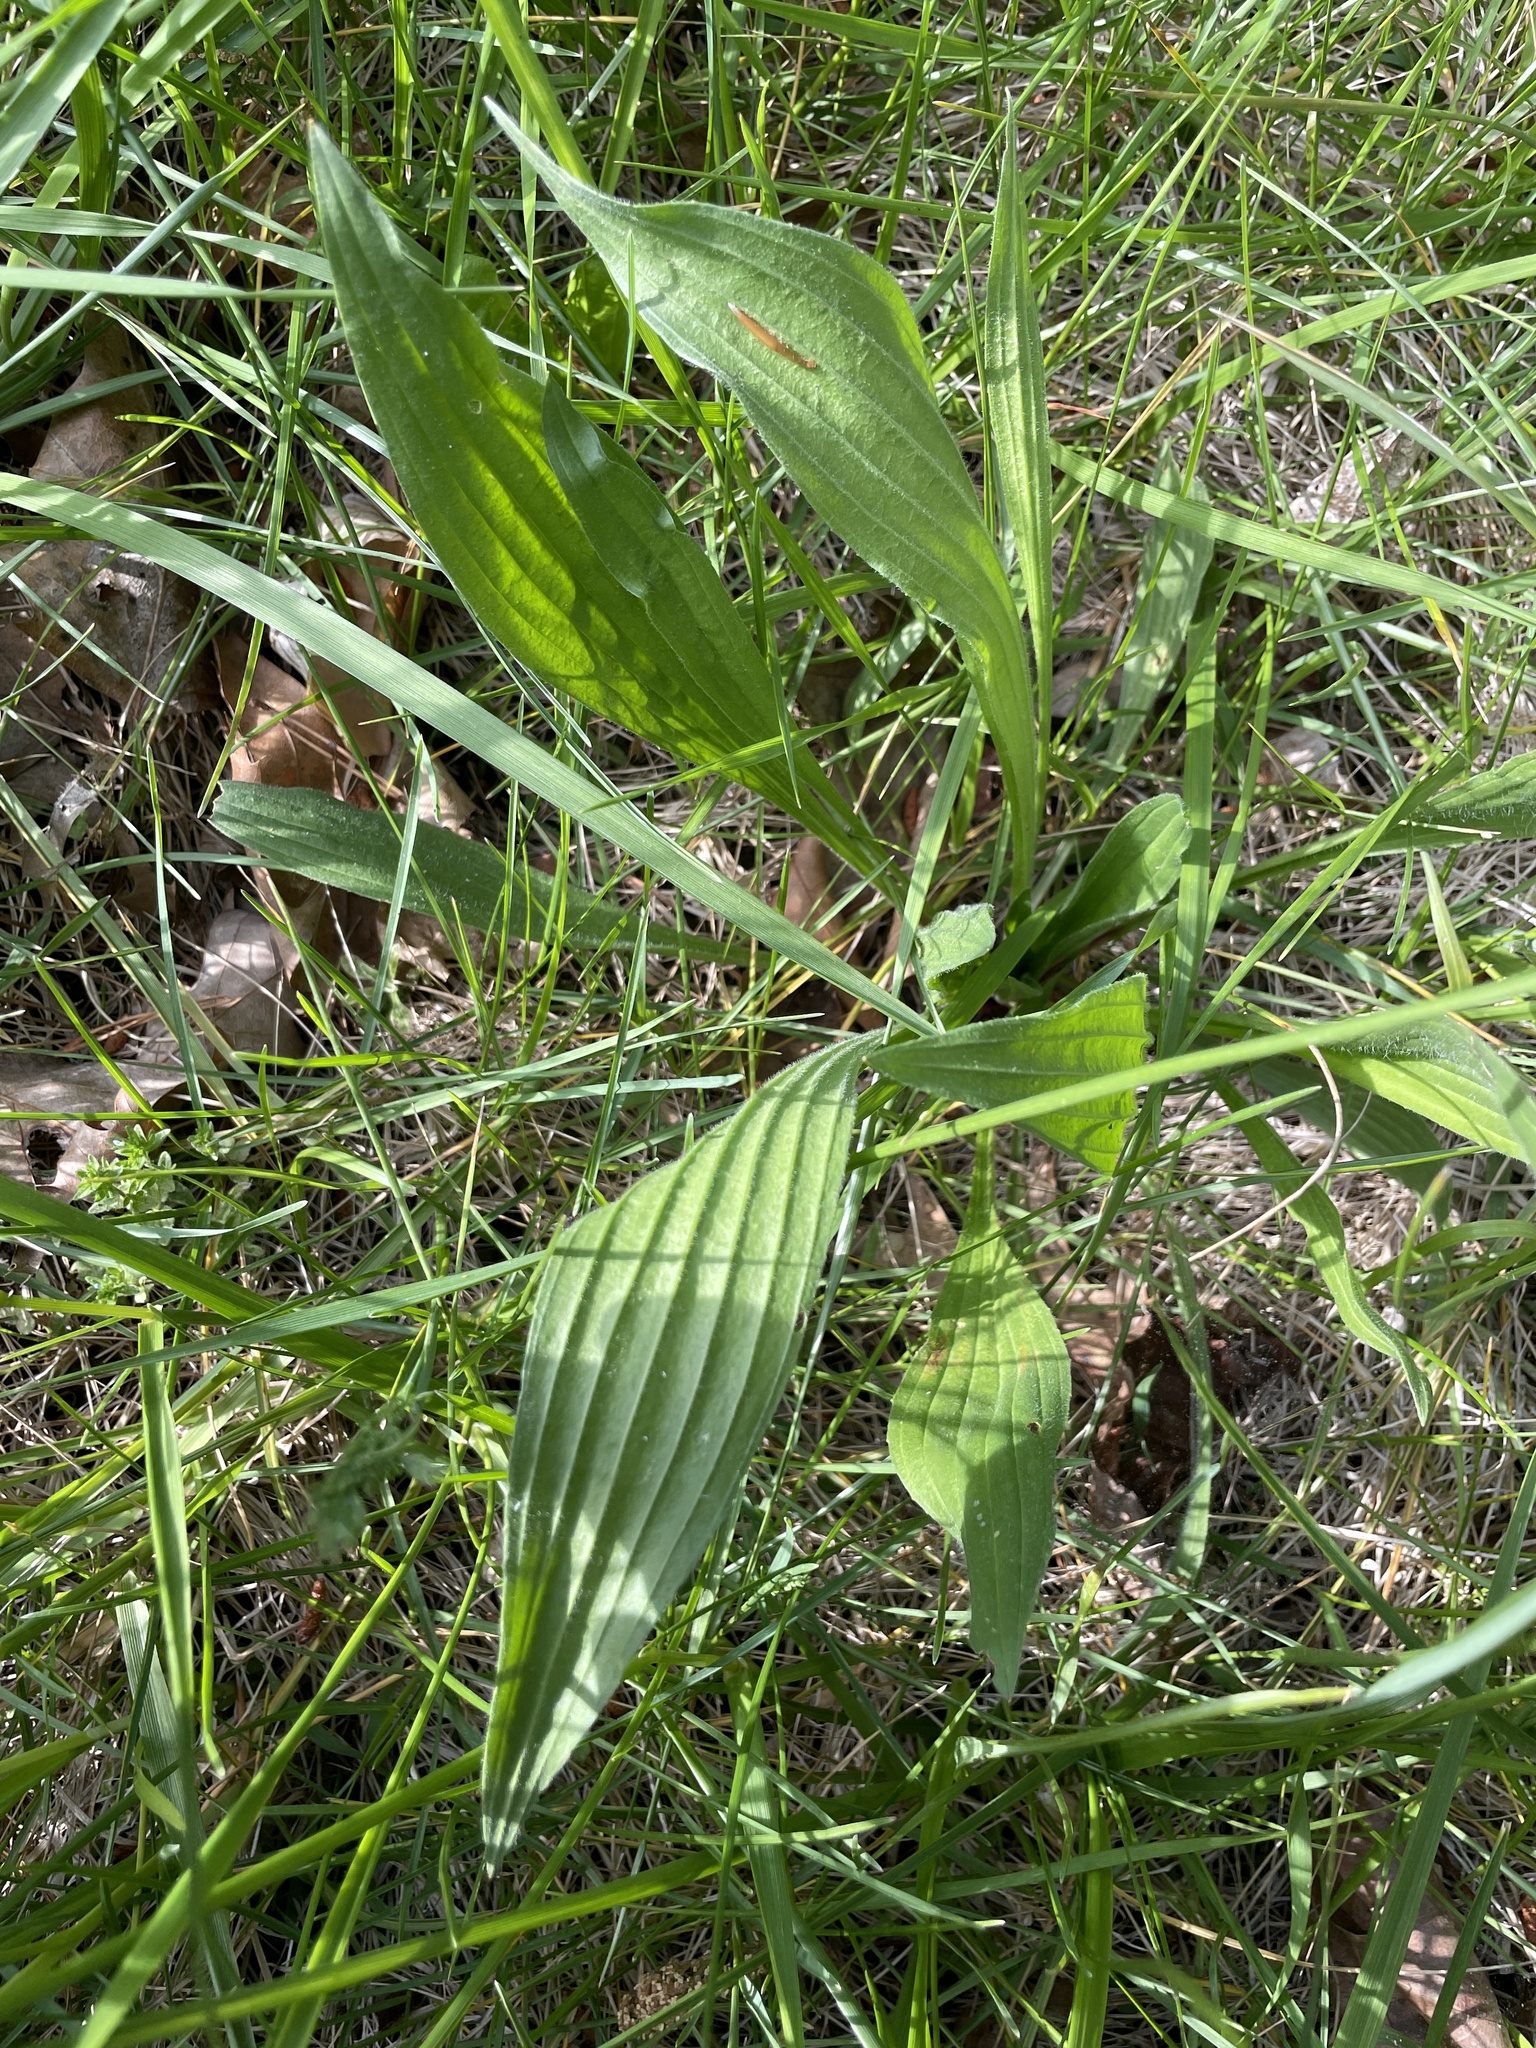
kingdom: Plantae
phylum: Tracheophyta
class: Magnoliopsida
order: Lamiales
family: Plantaginaceae
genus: Plantago
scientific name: Plantago lanceolata
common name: Ribwort plantain
